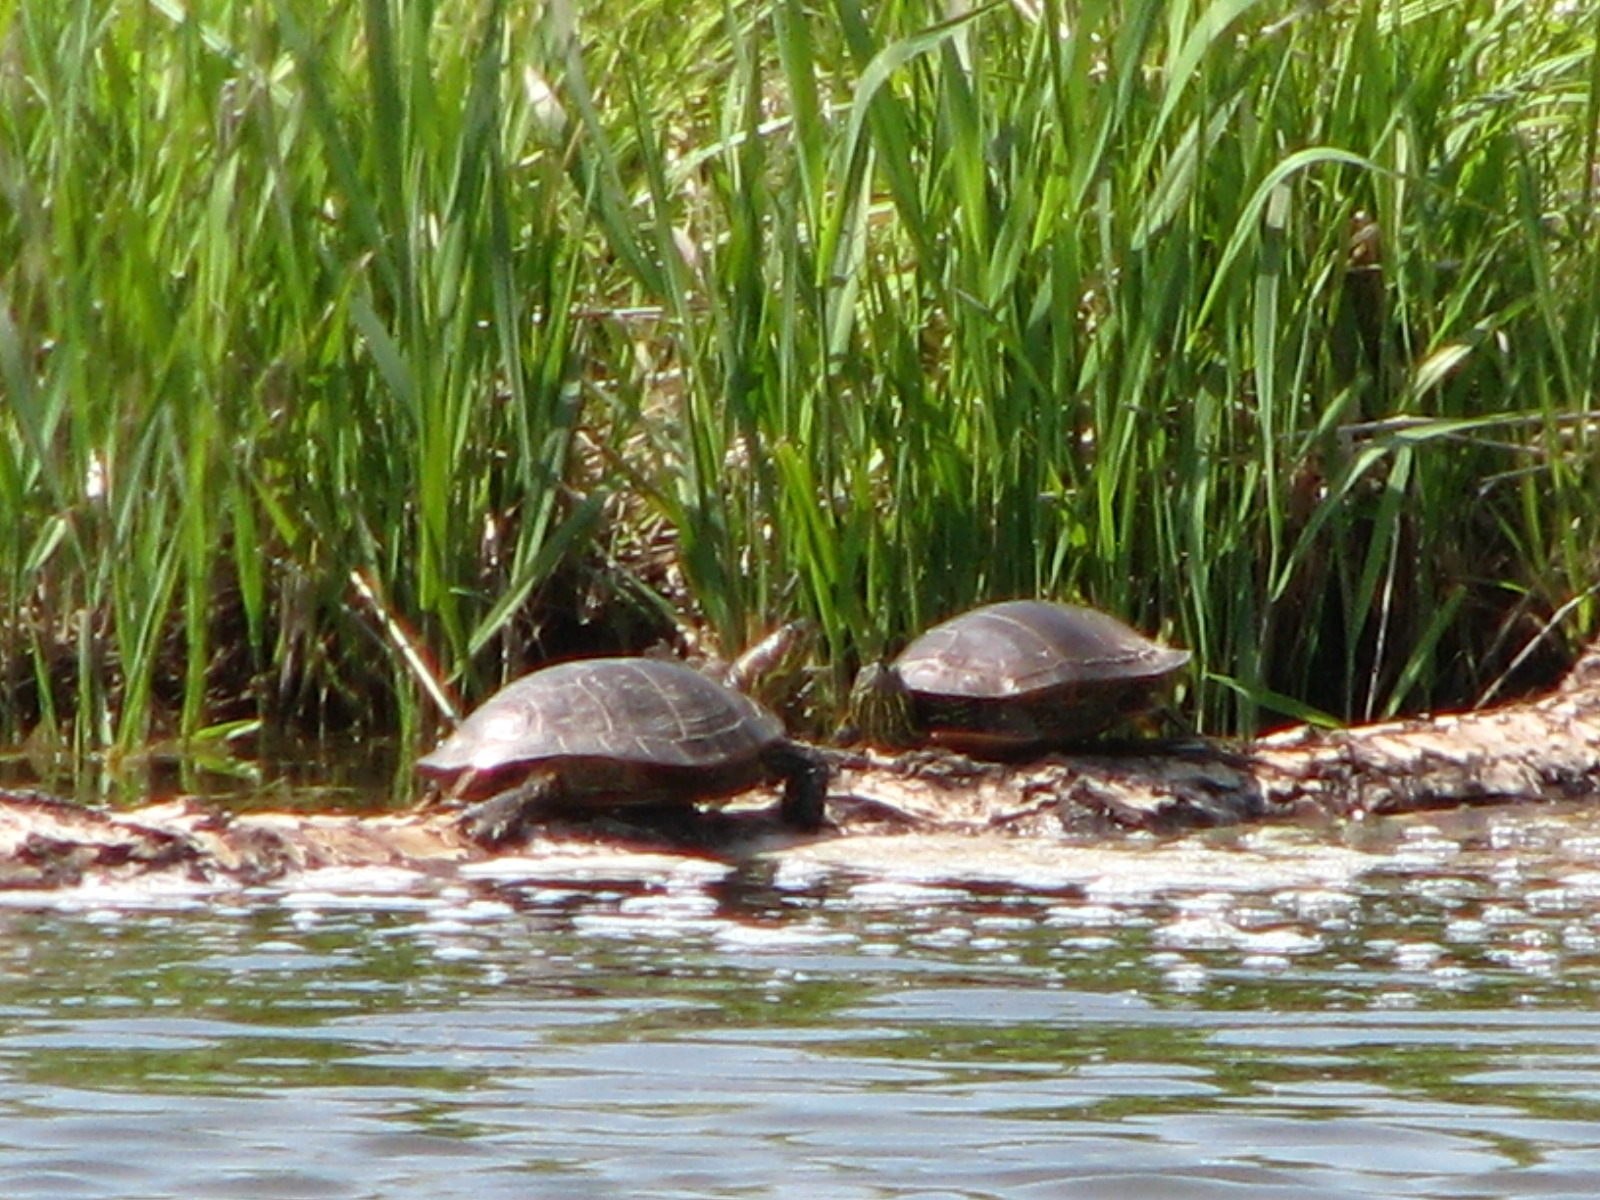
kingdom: Animalia
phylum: Chordata
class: Testudines
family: Emydidae
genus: Chrysemys
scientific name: Chrysemys picta
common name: Painted turtle
